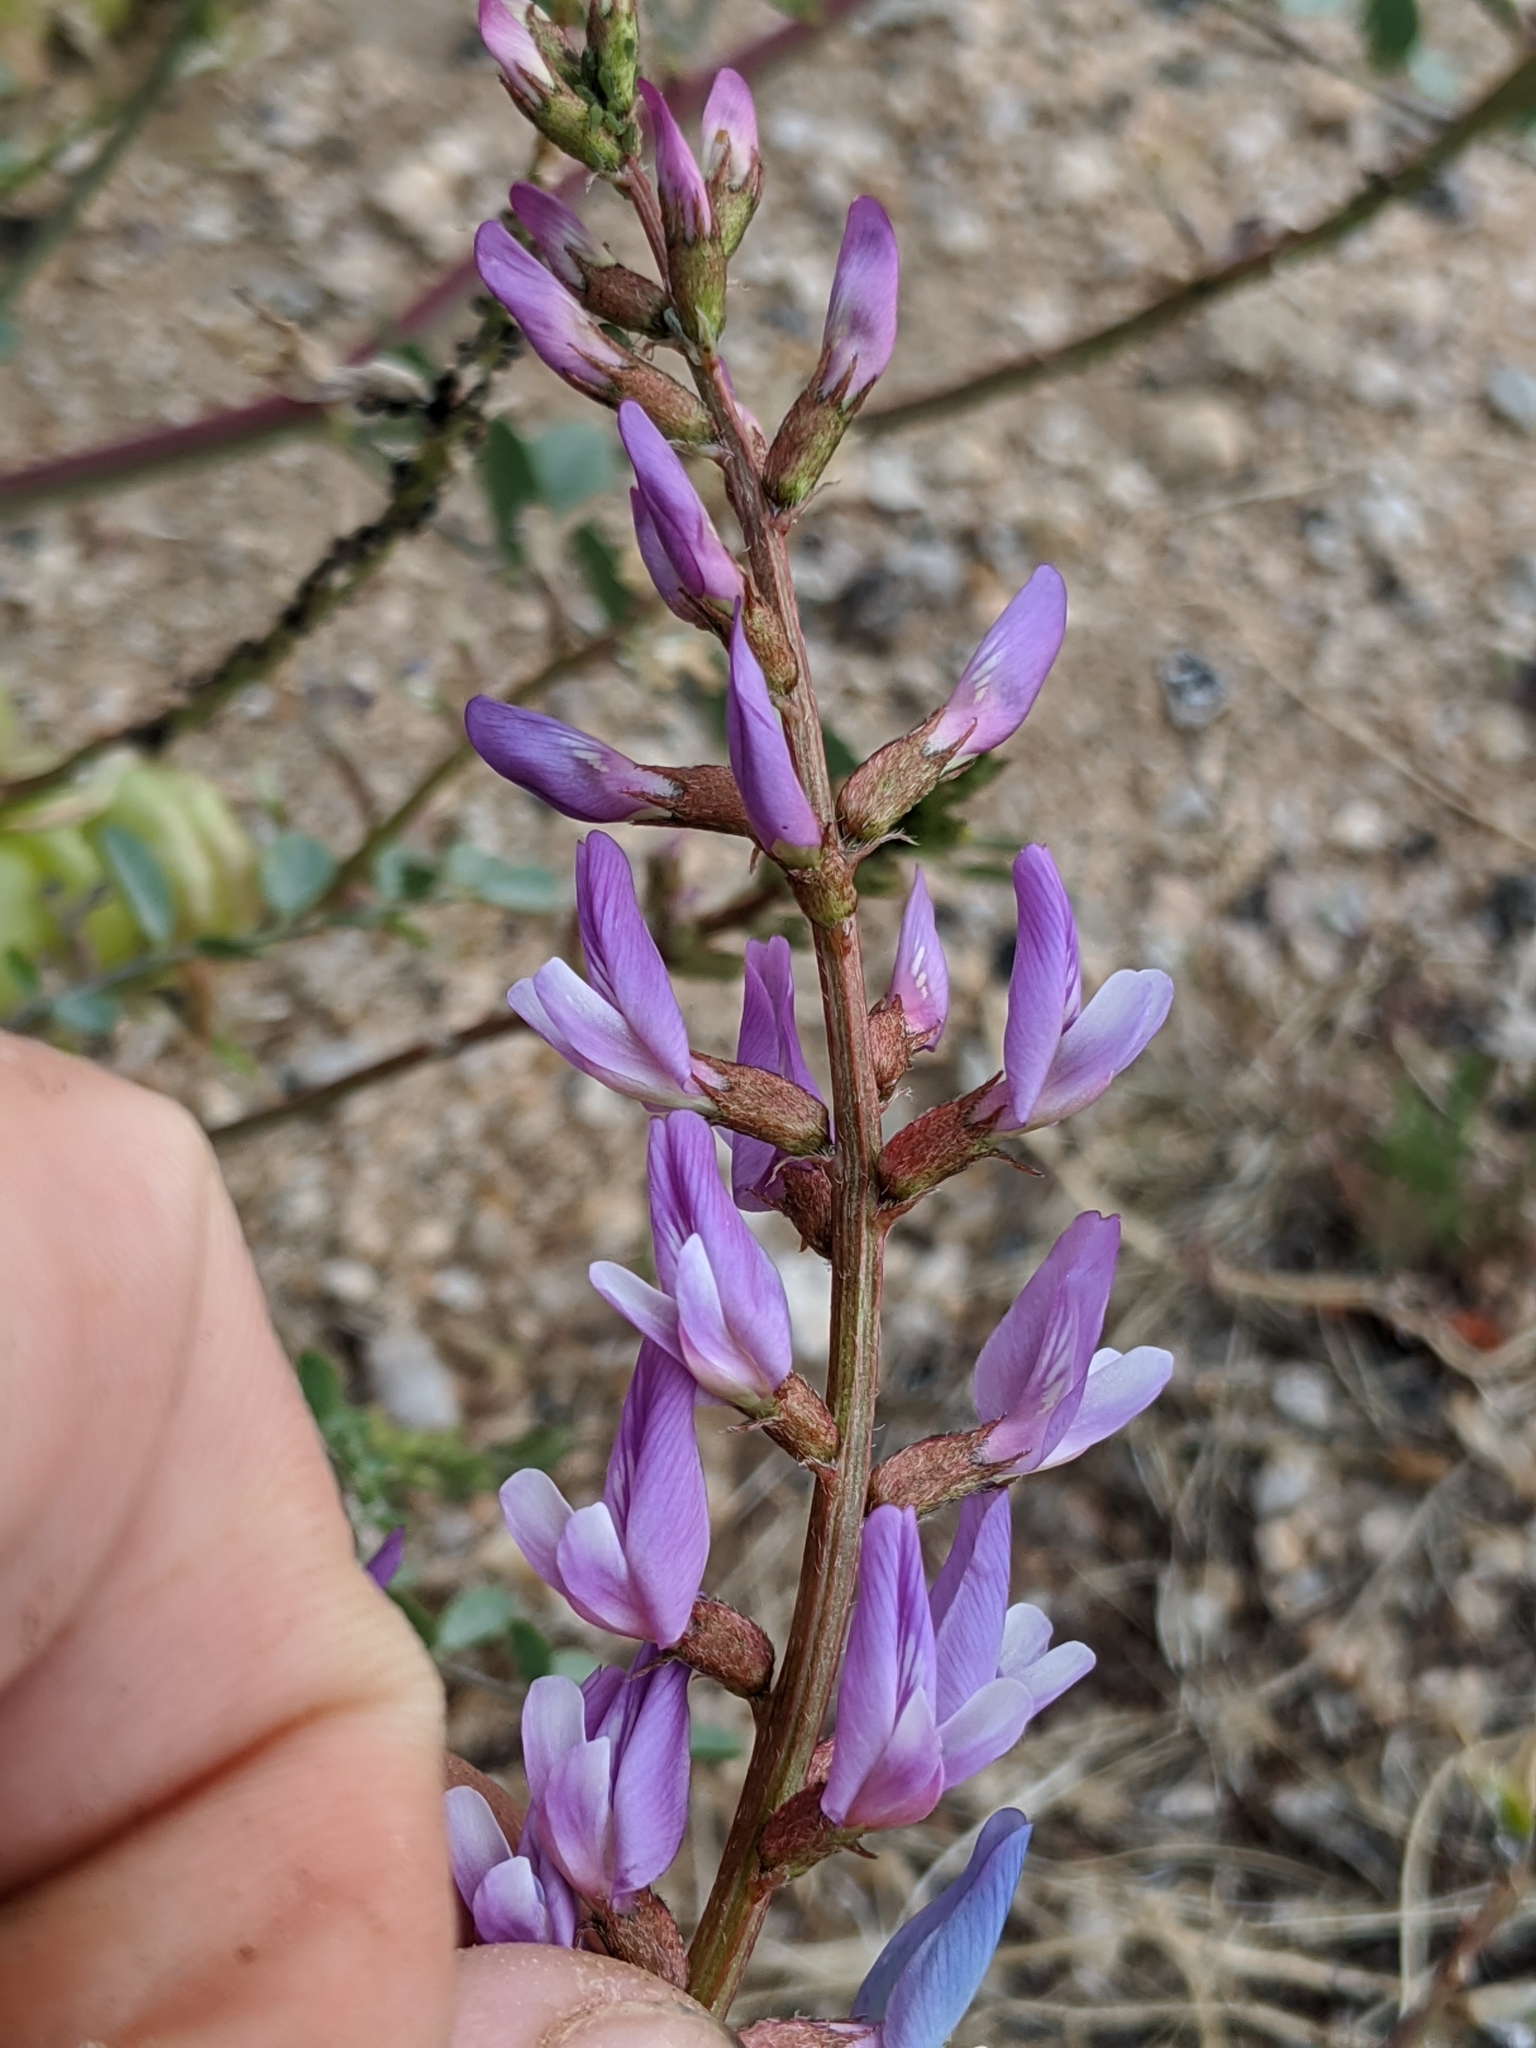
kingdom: Plantae
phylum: Tracheophyta
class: Magnoliopsida
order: Fabales
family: Fabaceae
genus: Astragalus
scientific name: Astragalus lentiginosus
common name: Freckled milkvetch
